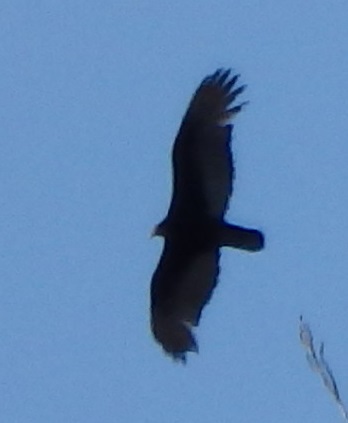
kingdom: Animalia
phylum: Chordata
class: Aves
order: Accipitriformes
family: Cathartidae
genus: Cathartes
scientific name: Cathartes aura
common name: Turkey vulture
